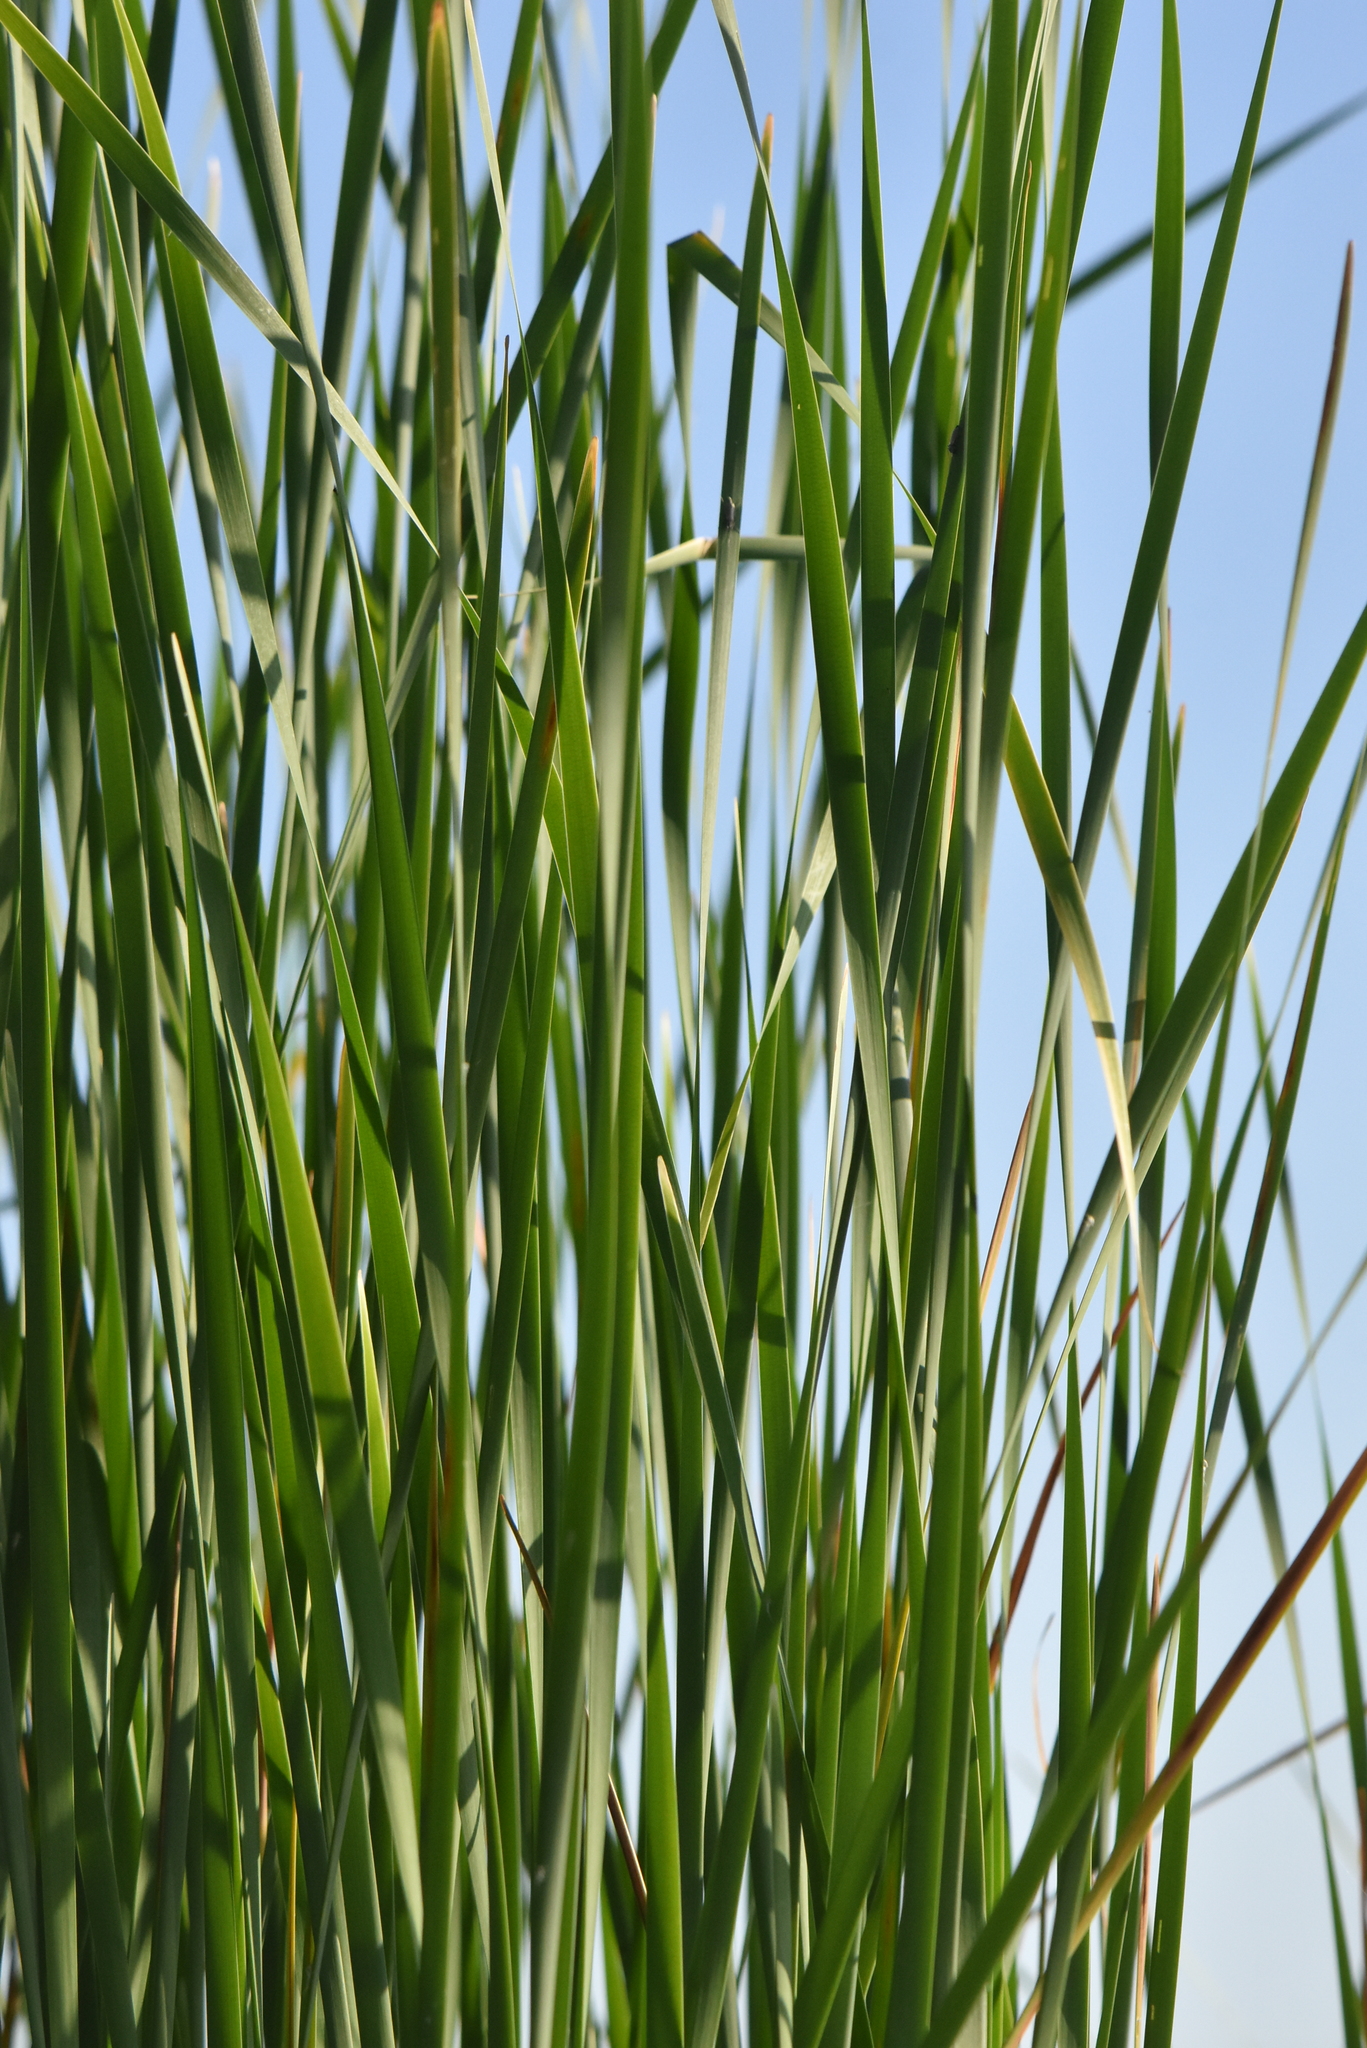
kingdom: Plantae
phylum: Tracheophyta
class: Liliopsida
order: Poales
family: Typhaceae
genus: Typha
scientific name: Typha angustifolia
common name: Lesser bulrush
